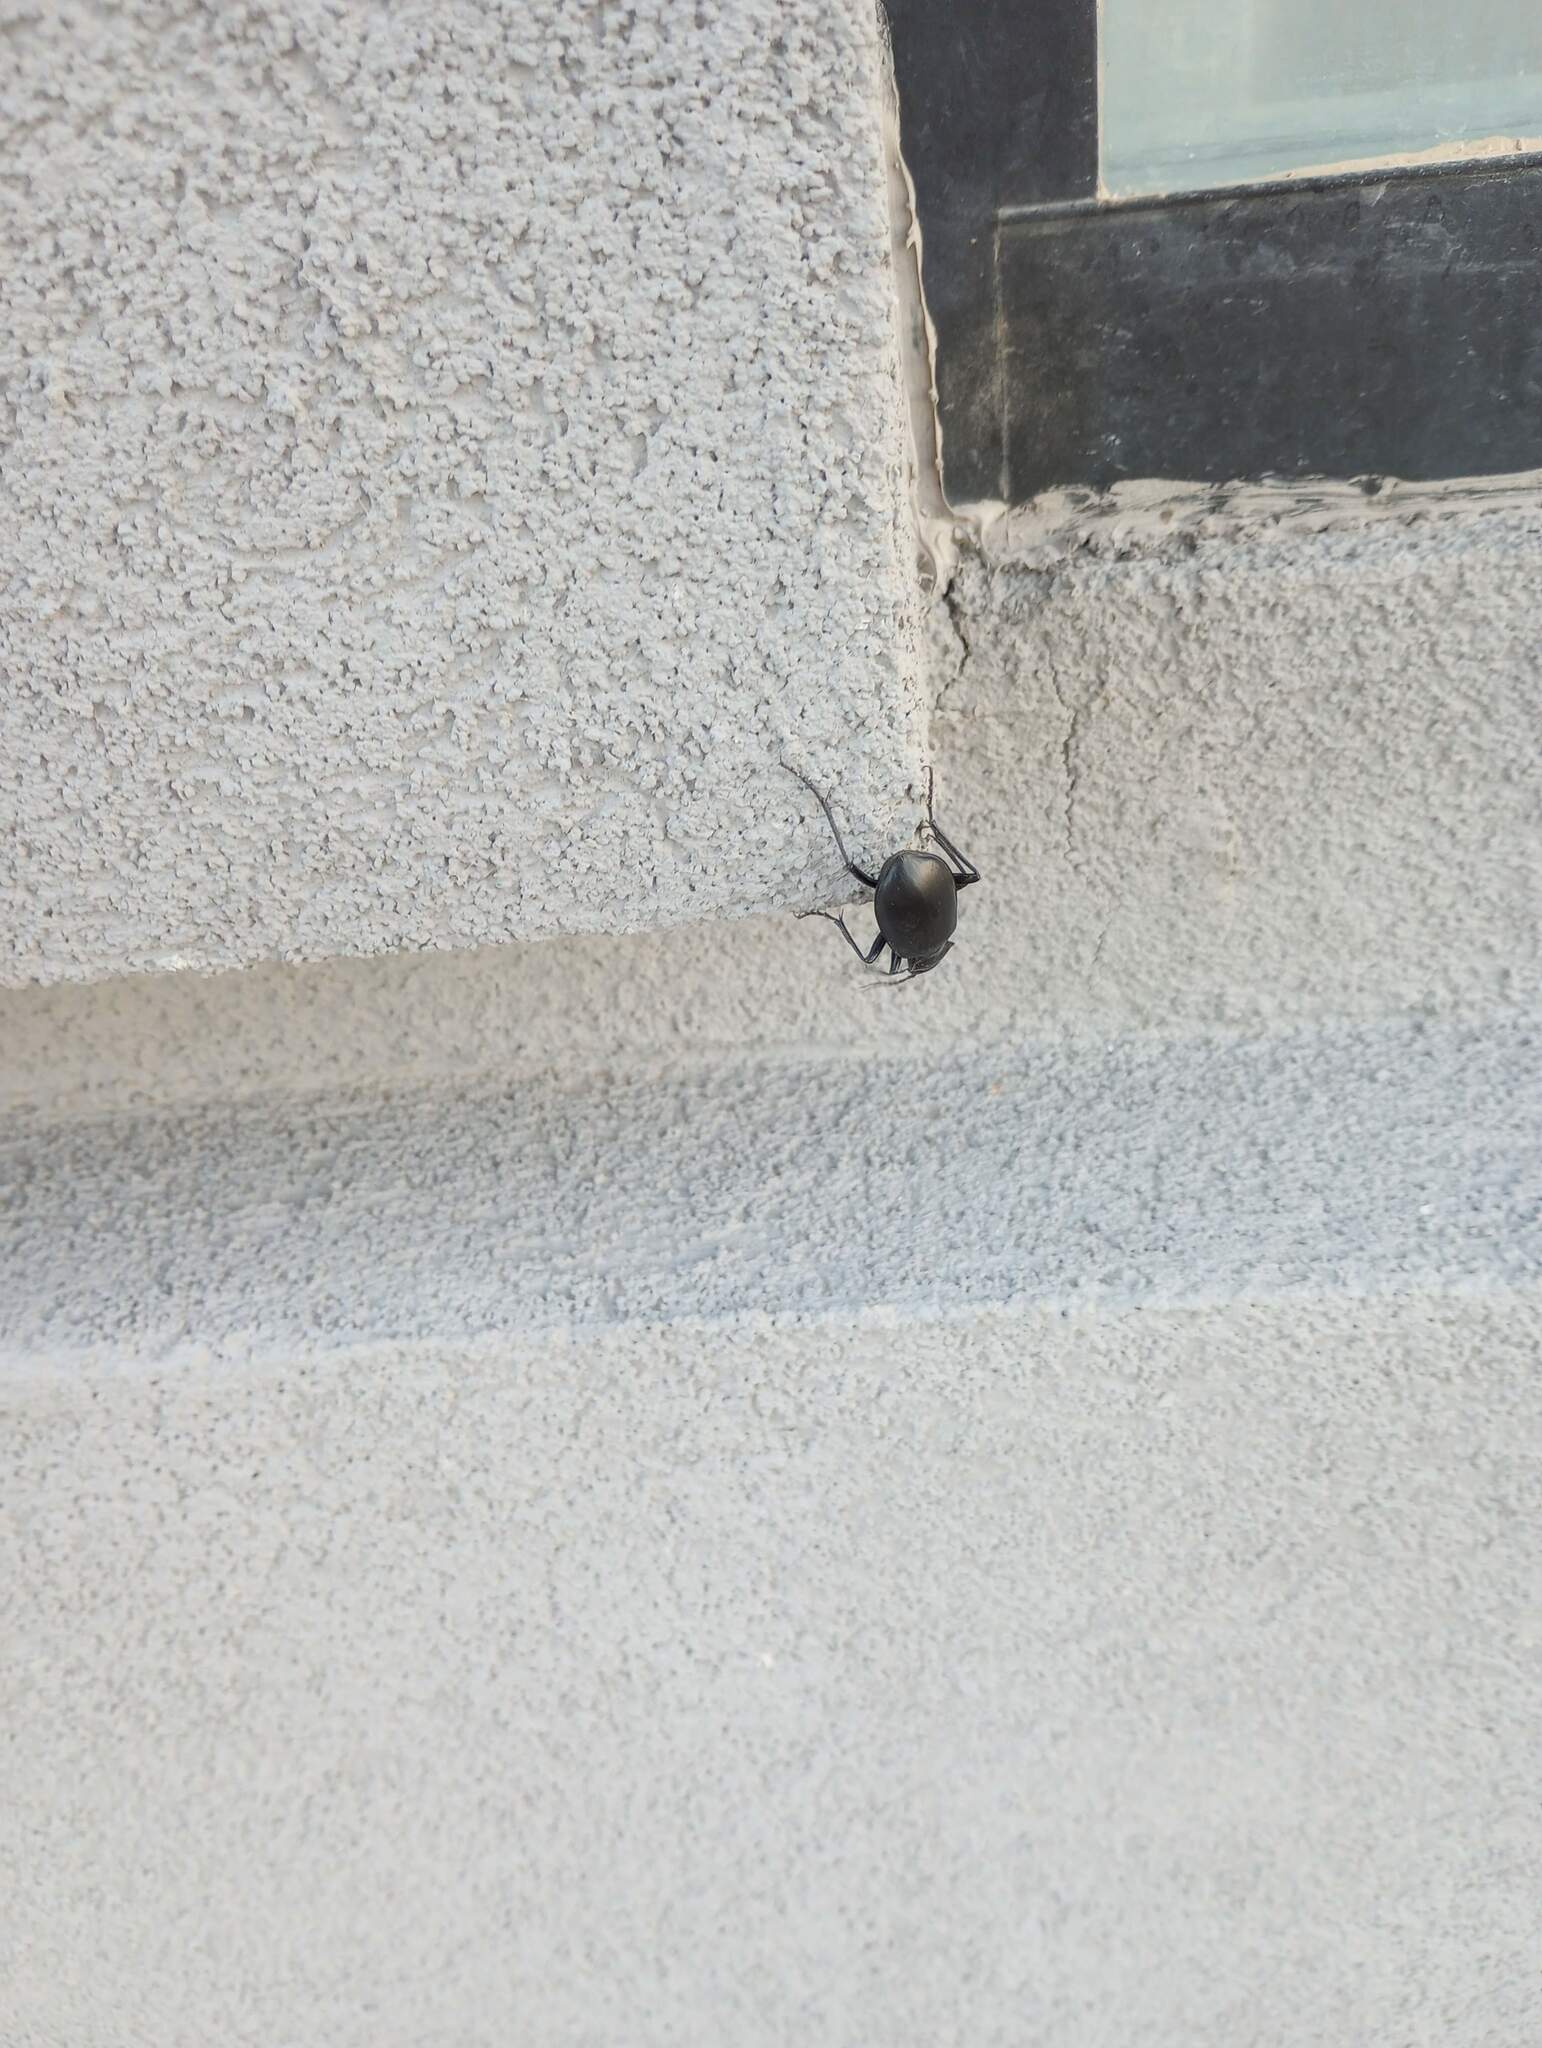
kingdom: Animalia
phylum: Arthropoda
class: Insecta
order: Coleoptera
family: Carabidae
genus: Calosoma
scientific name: Calosoma
